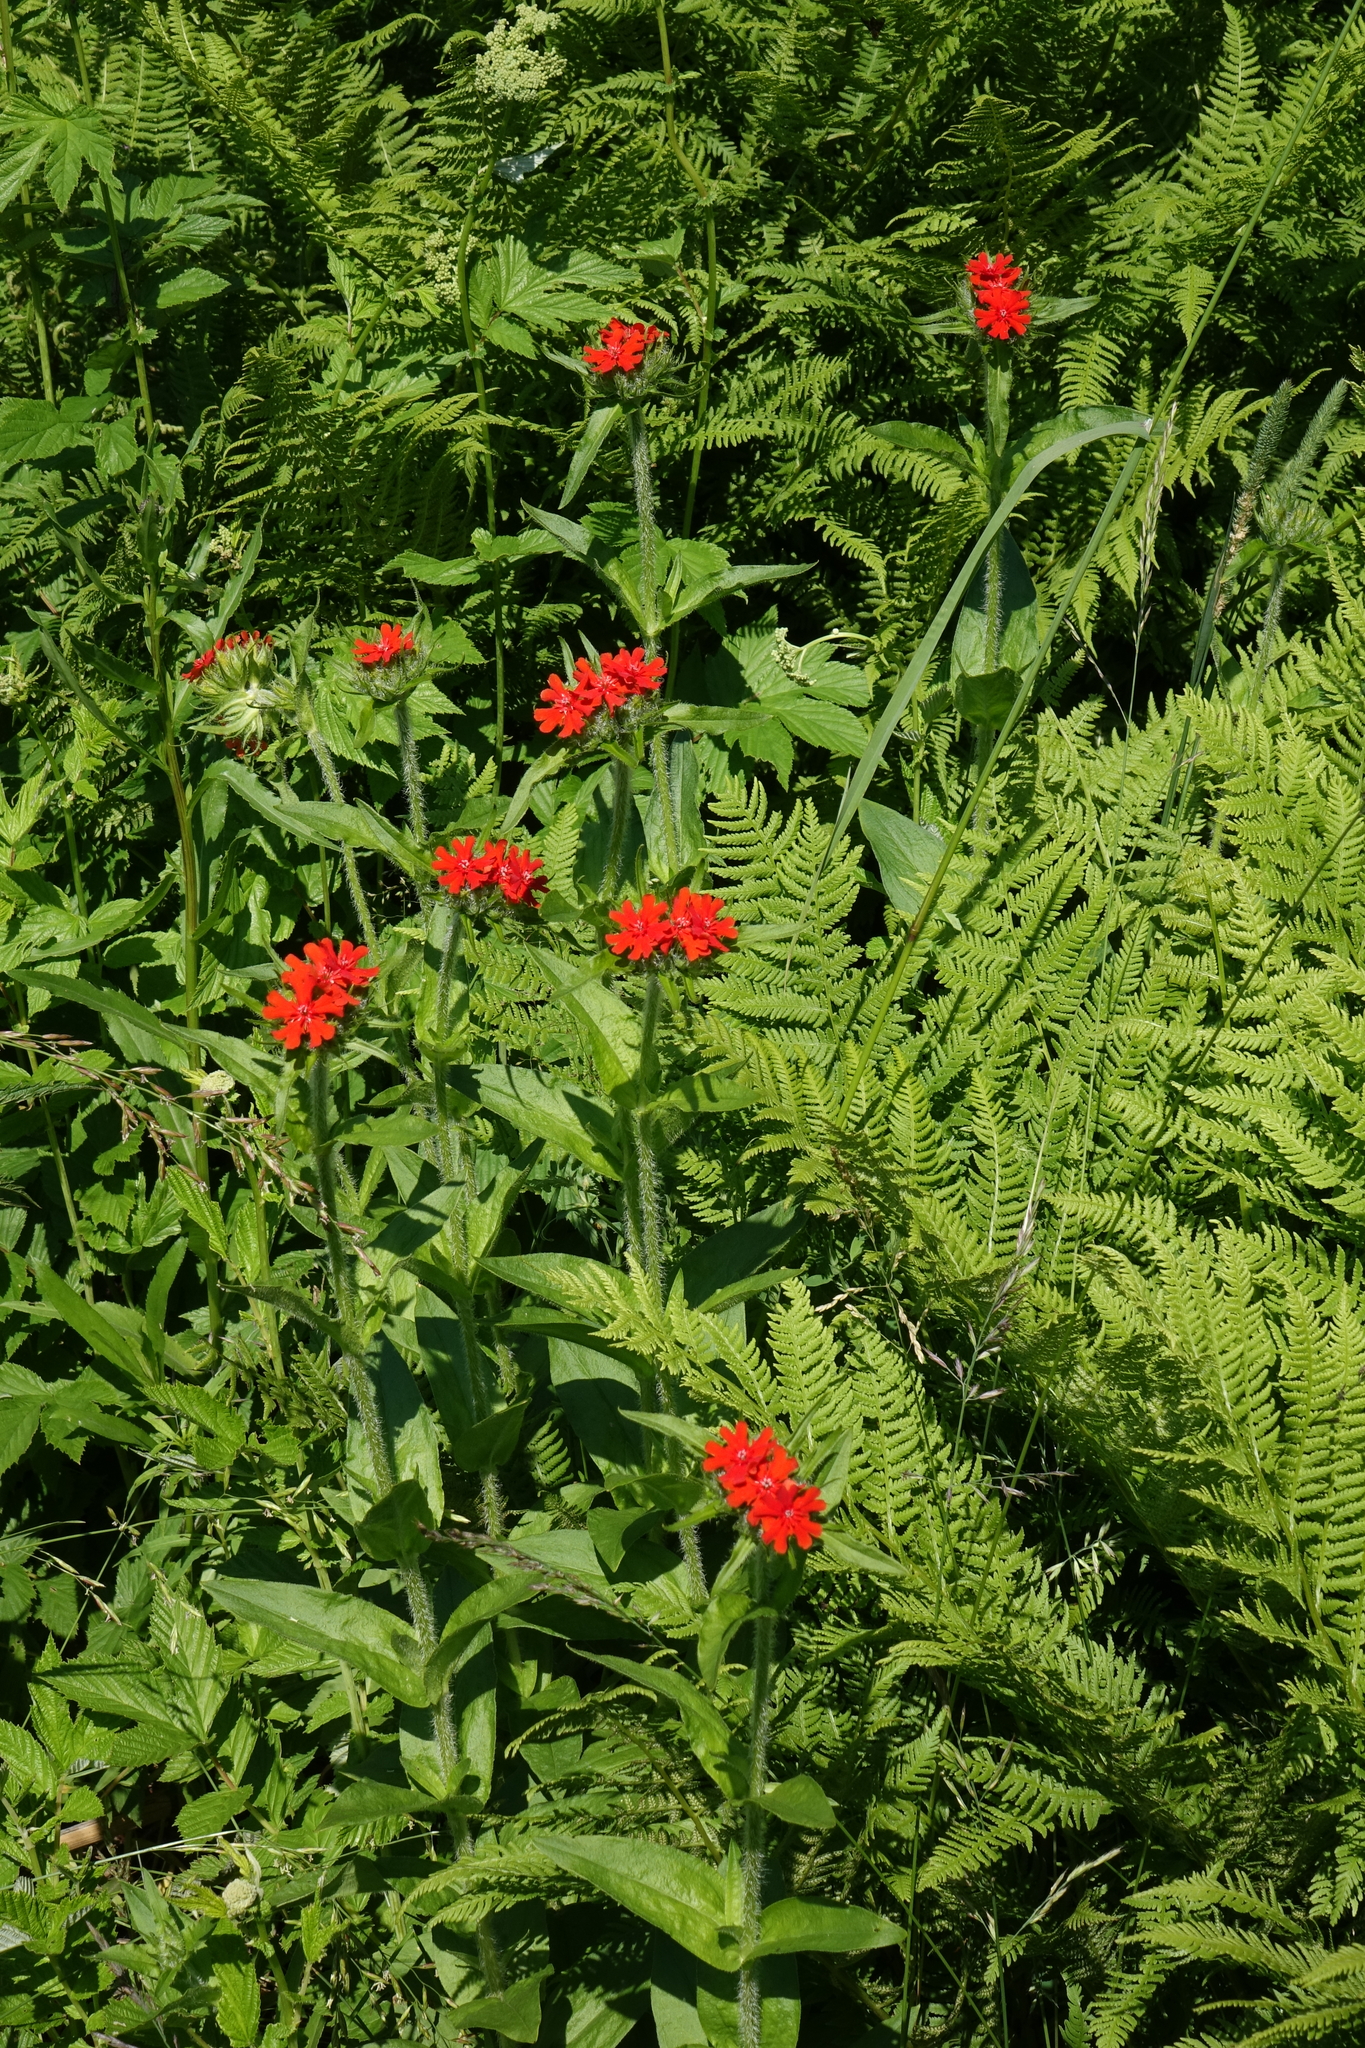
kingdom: Plantae
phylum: Tracheophyta
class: Magnoliopsida
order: Caryophyllales
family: Caryophyllaceae
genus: Silene
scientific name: Silene chalcedonica
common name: Maltese-cross
